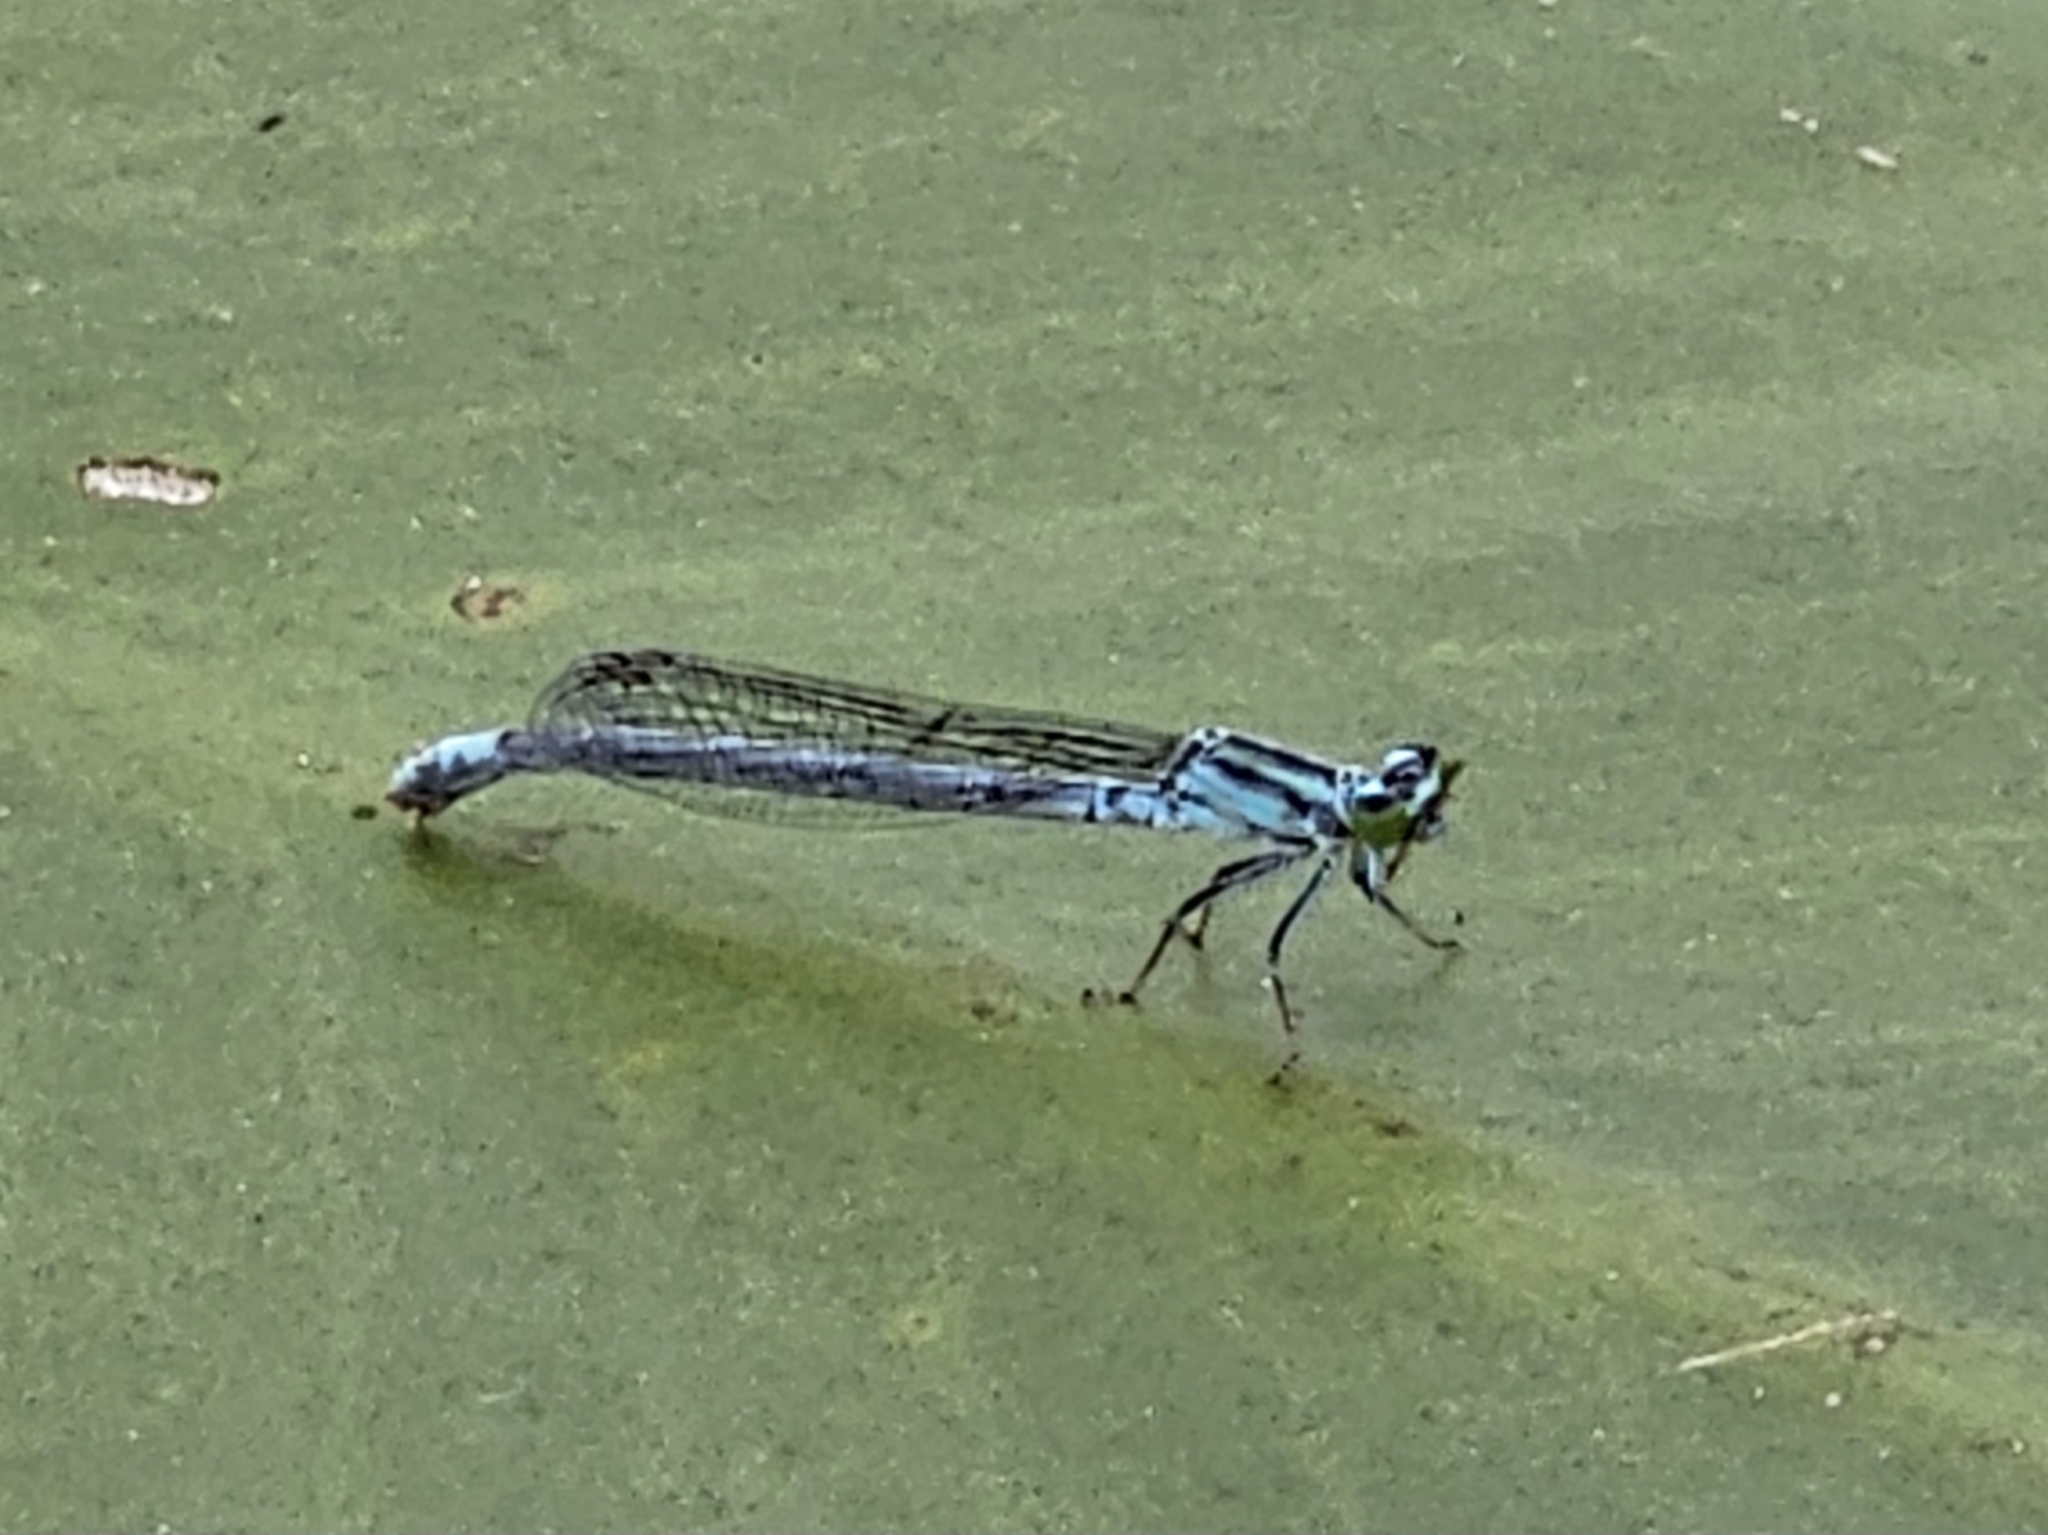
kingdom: Animalia
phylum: Arthropoda
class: Insecta
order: Odonata
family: Coenagrionidae
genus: Ischnura
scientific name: Ischnura kellicotti
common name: Lilypad forktail
